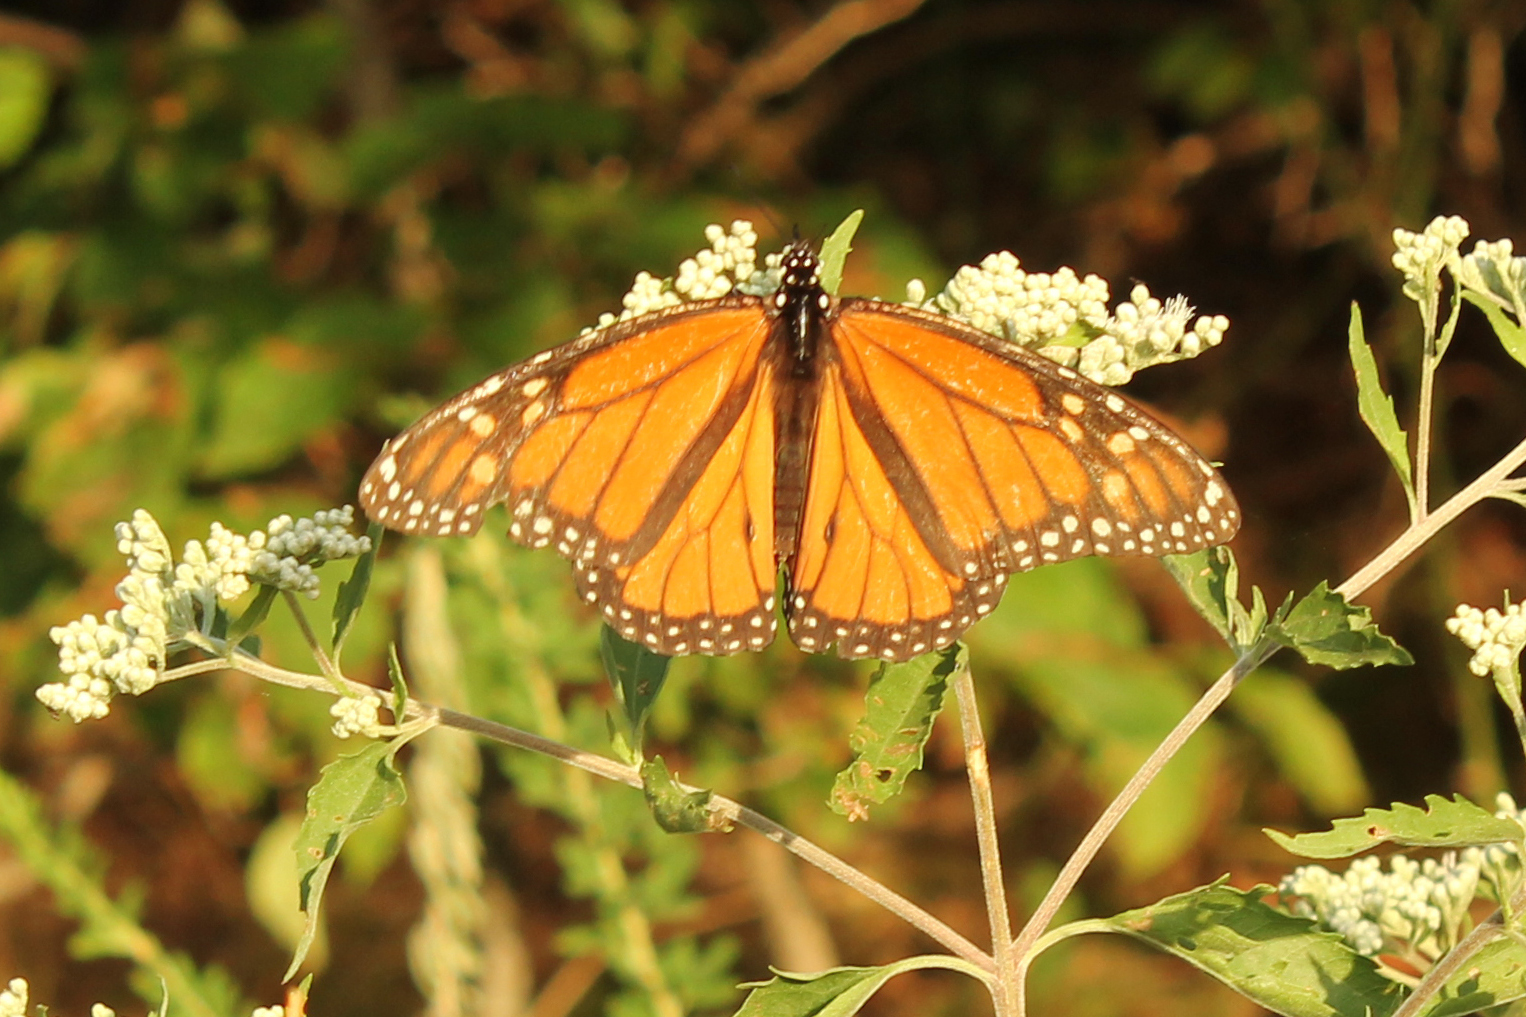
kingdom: Animalia
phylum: Arthropoda
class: Insecta
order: Lepidoptera
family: Nymphalidae
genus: Danaus
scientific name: Danaus plexippus
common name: Monarch
